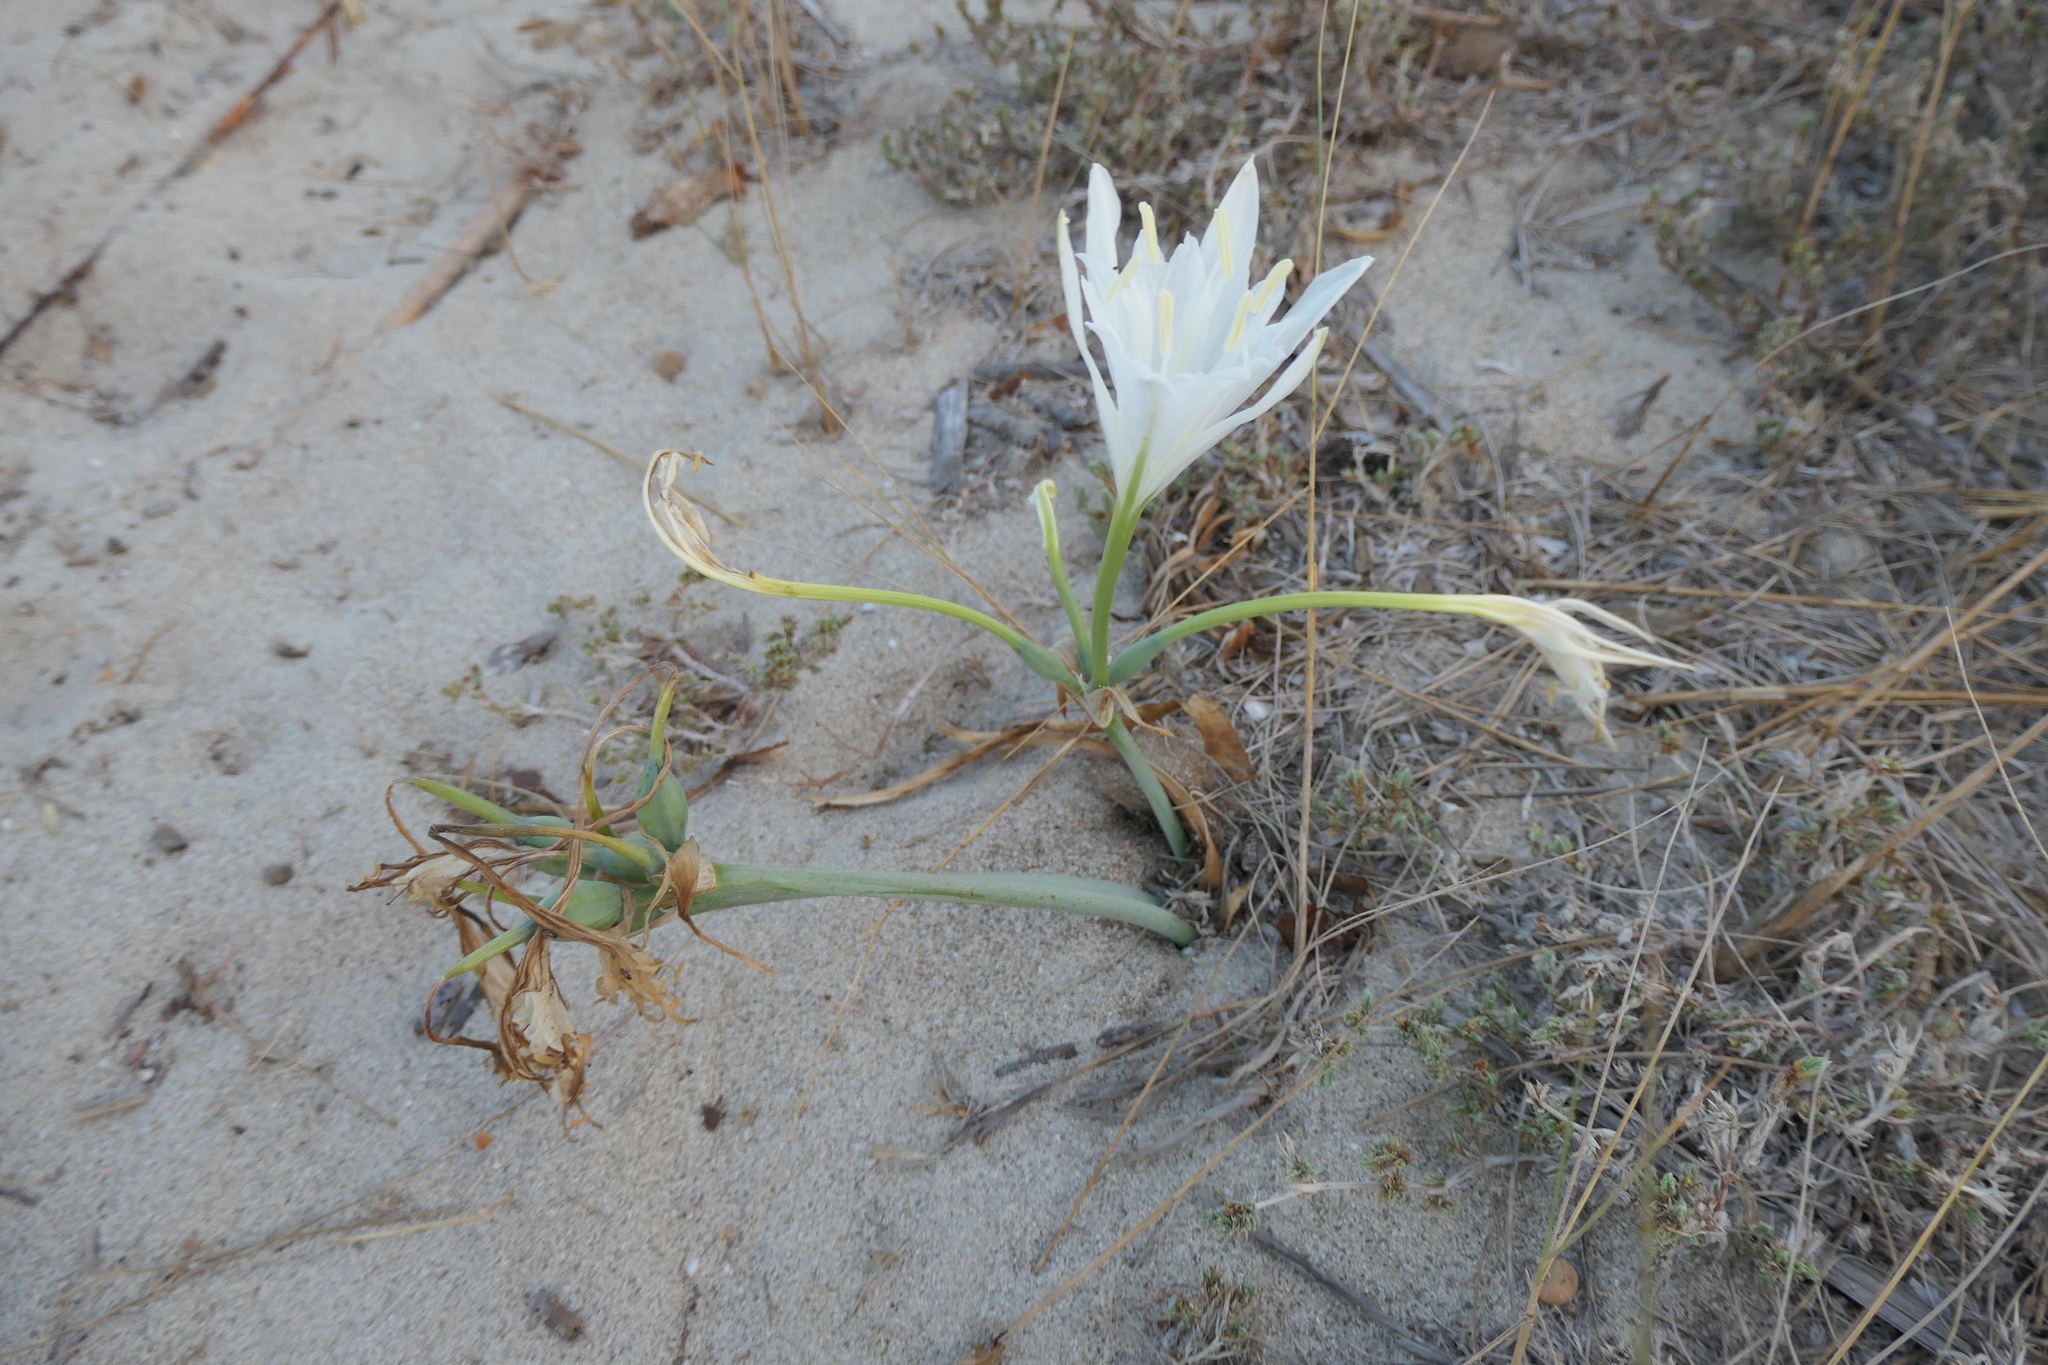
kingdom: Plantae
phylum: Tracheophyta
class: Liliopsida
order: Asparagales
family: Amaryllidaceae
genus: Pancratium
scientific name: Pancratium maritimum
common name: Sea-daffodil
